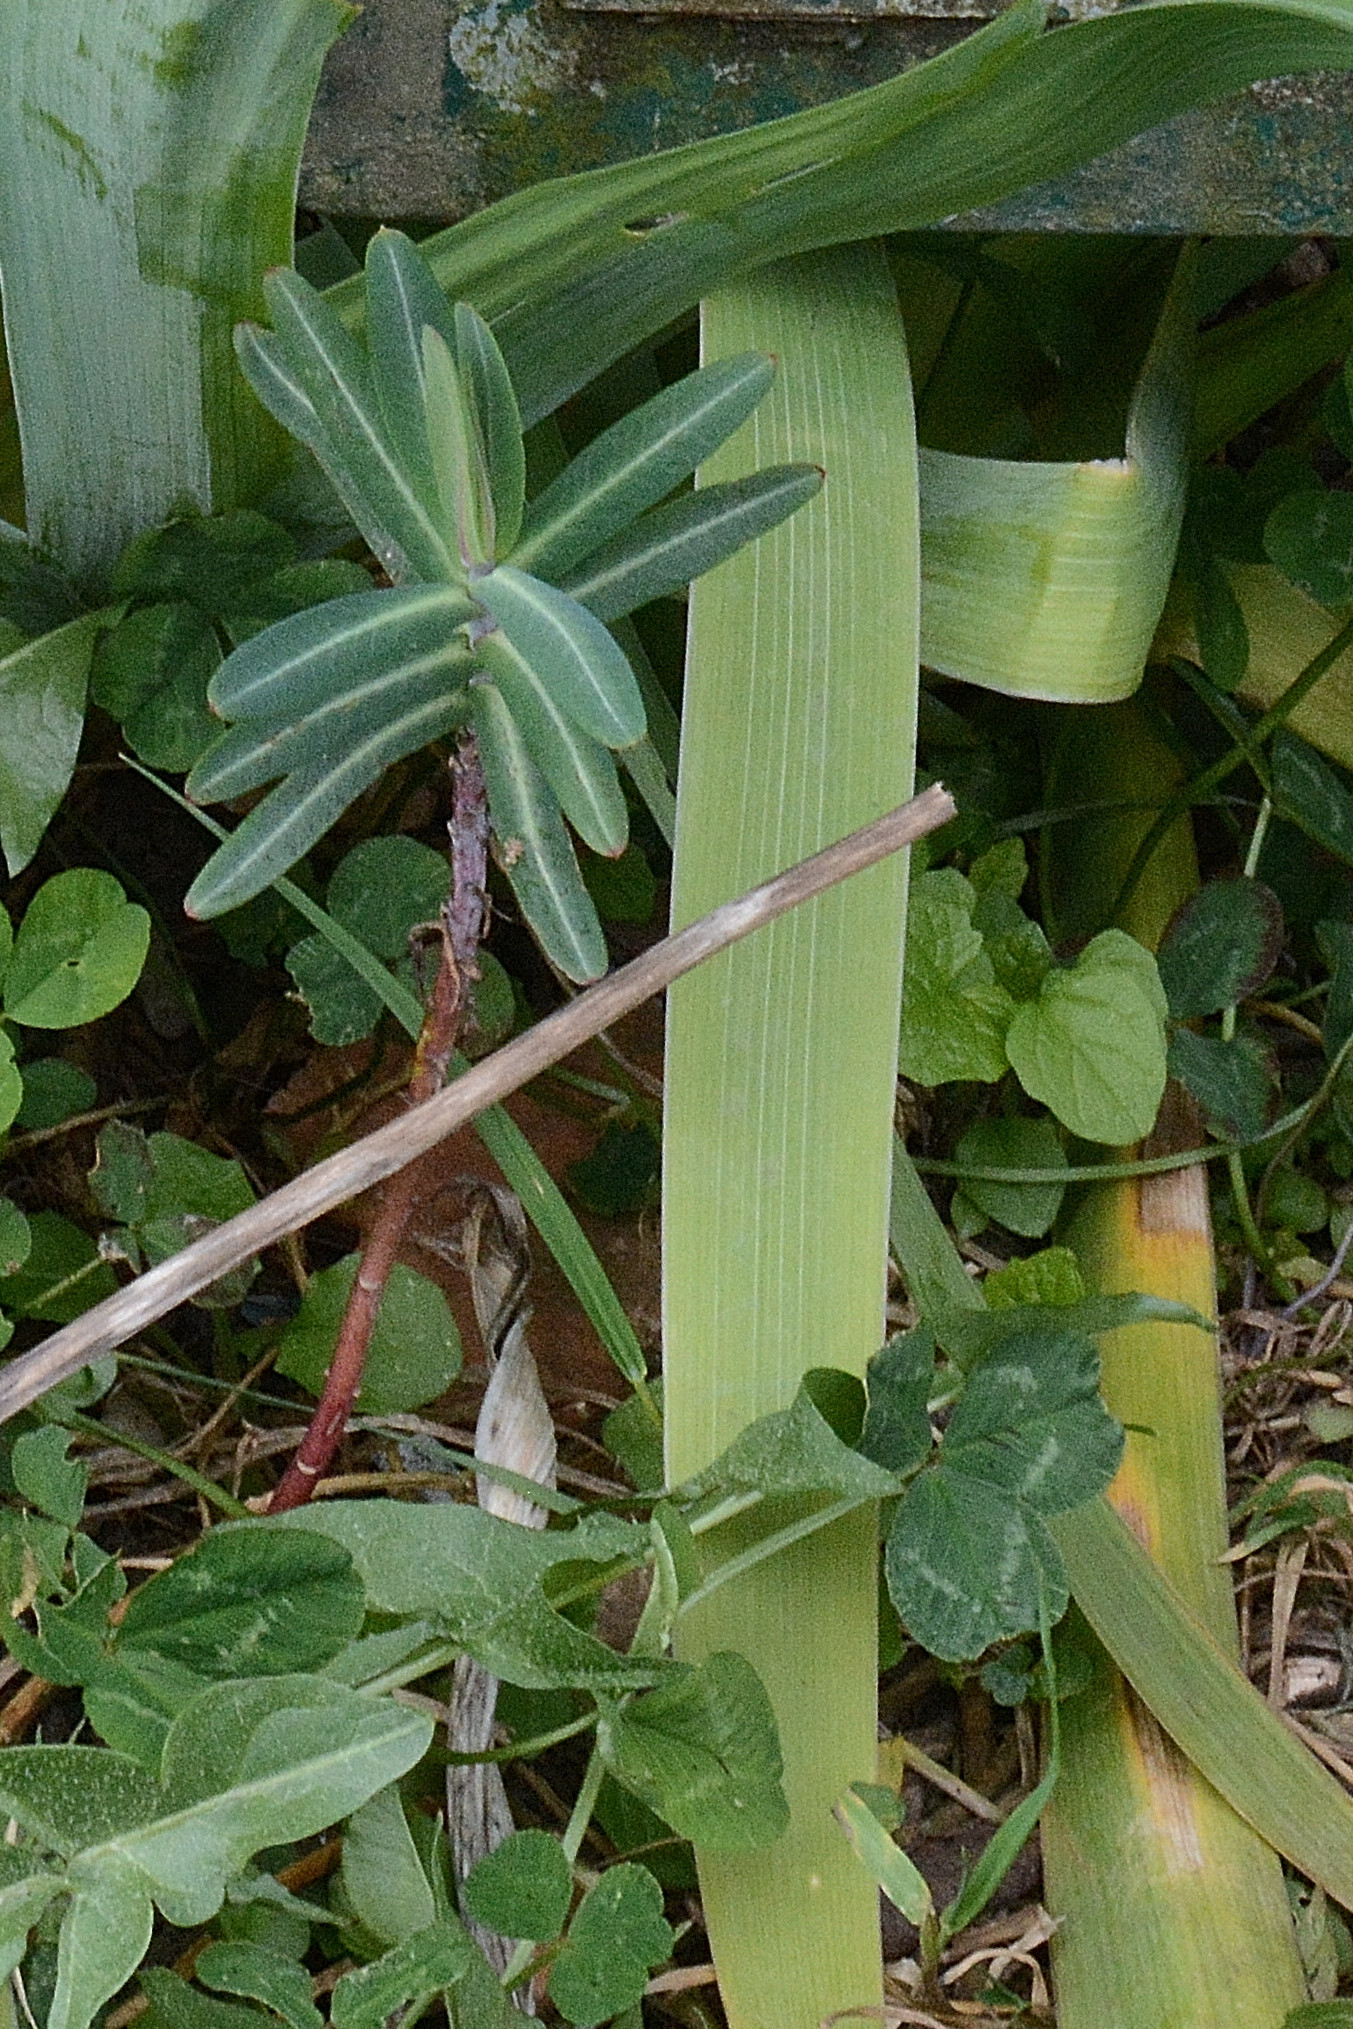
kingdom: Plantae
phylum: Tracheophyta
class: Magnoliopsida
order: Malpighiales
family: Euphorbiaceae
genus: Euphorbia
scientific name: Euphorbia lathyris
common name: Caper spurge
